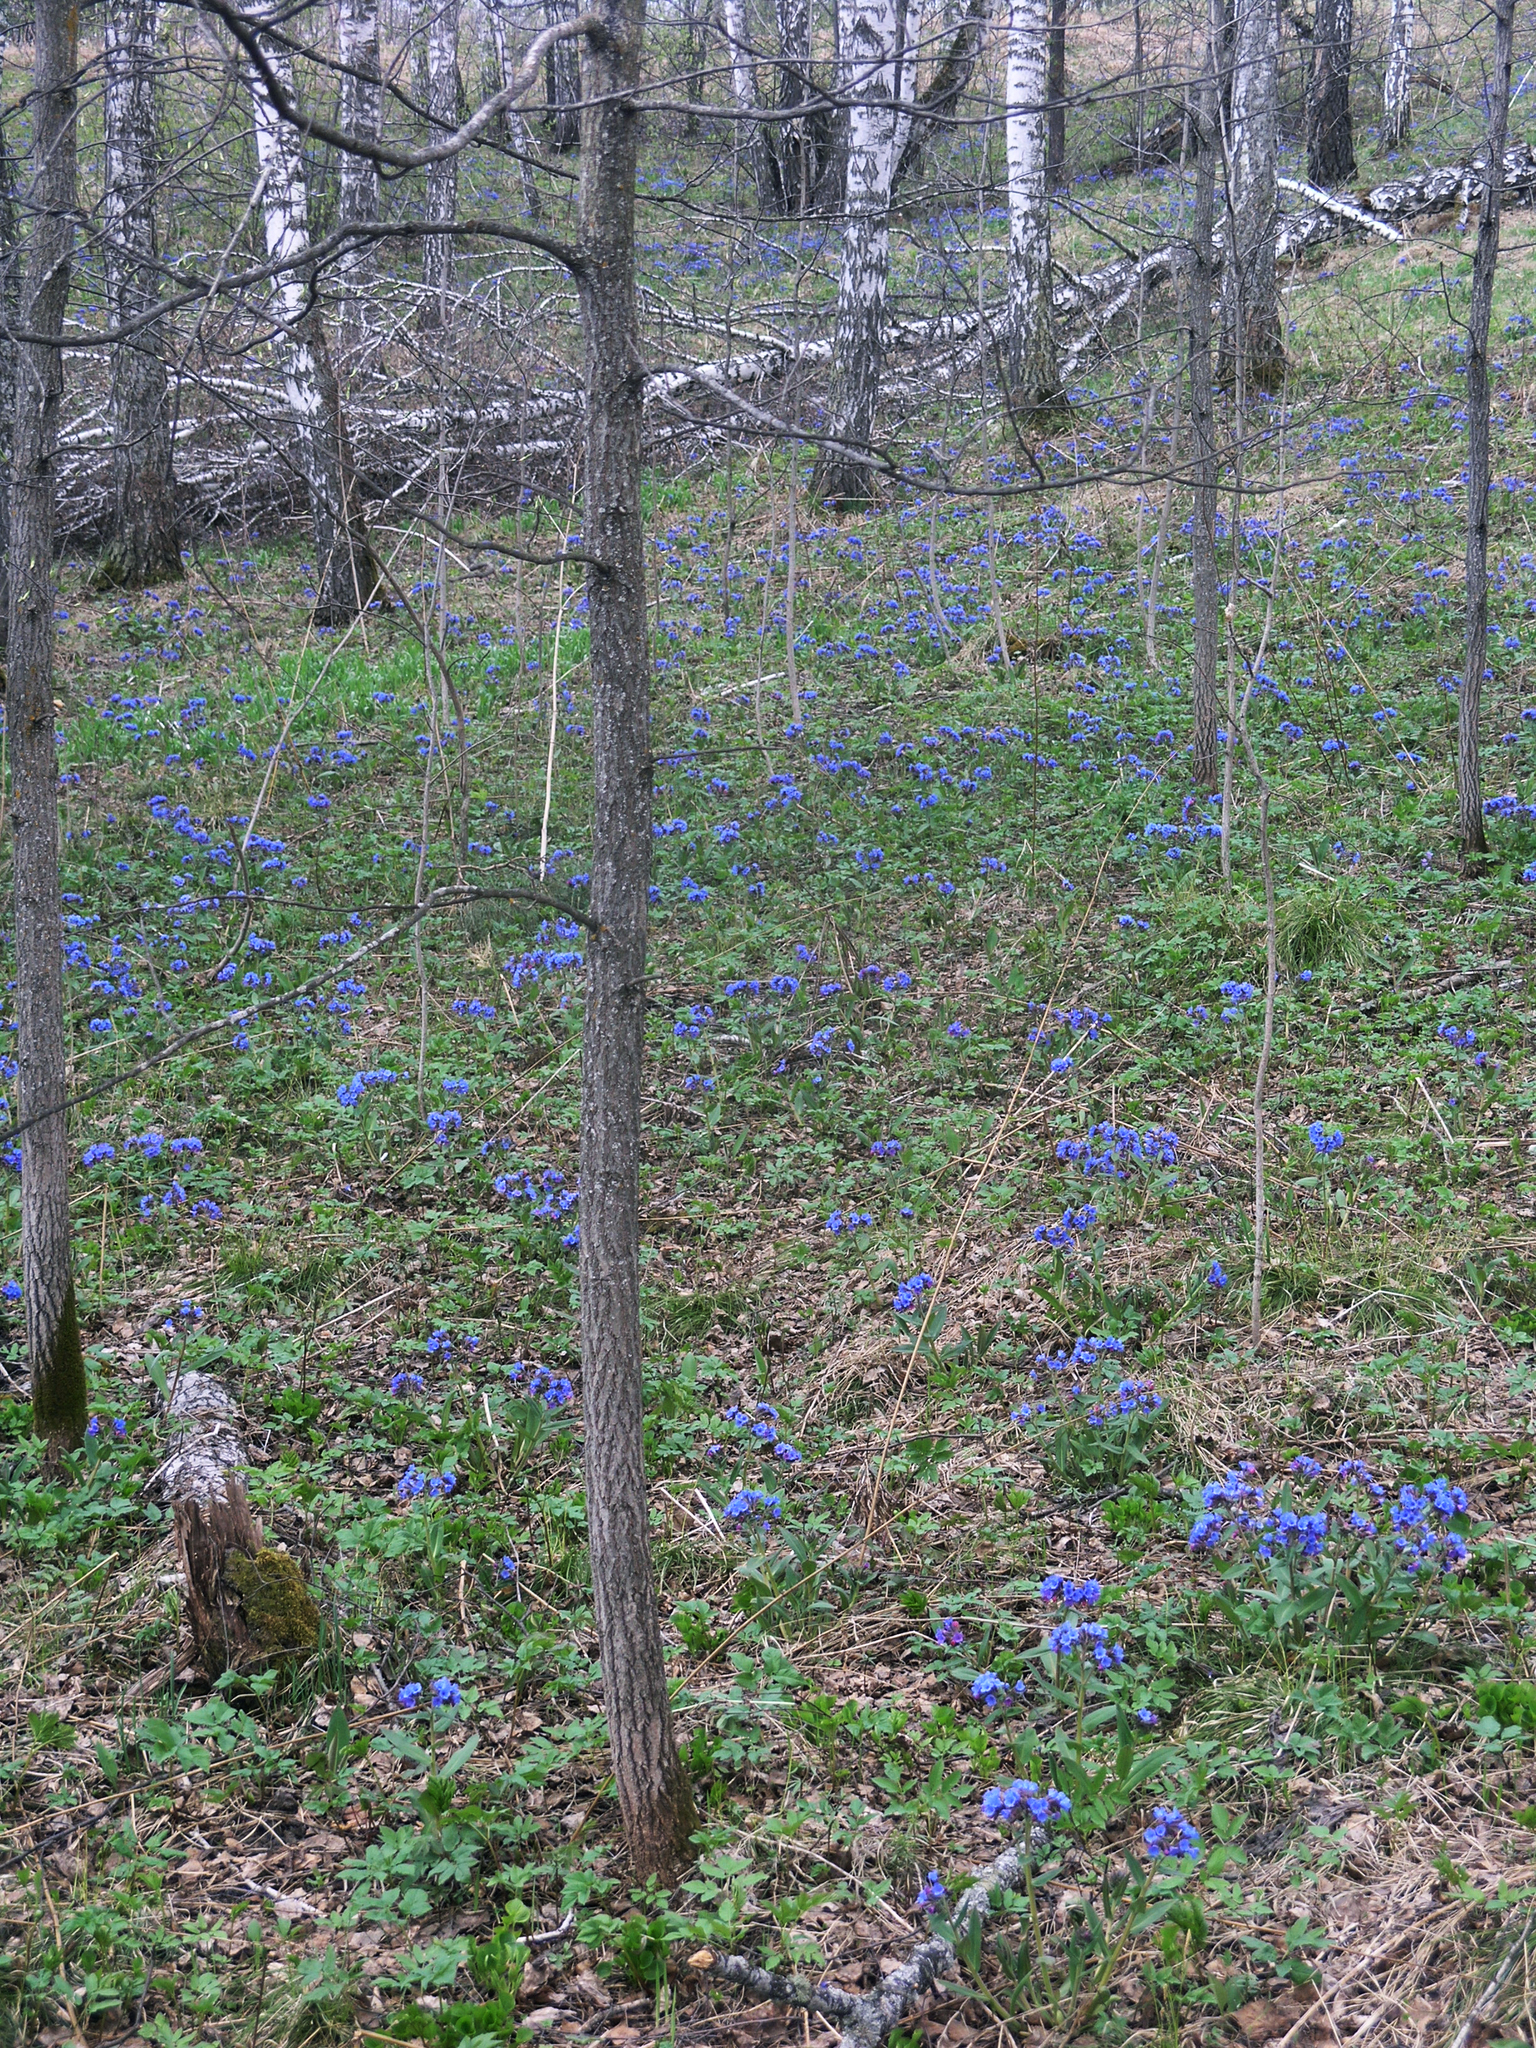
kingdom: Plantae
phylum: Tracheophyta
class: Magnoliopsida
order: Boraginales
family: Boraginaceae
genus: Pulmonaria
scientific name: Pulmonaria mollis
